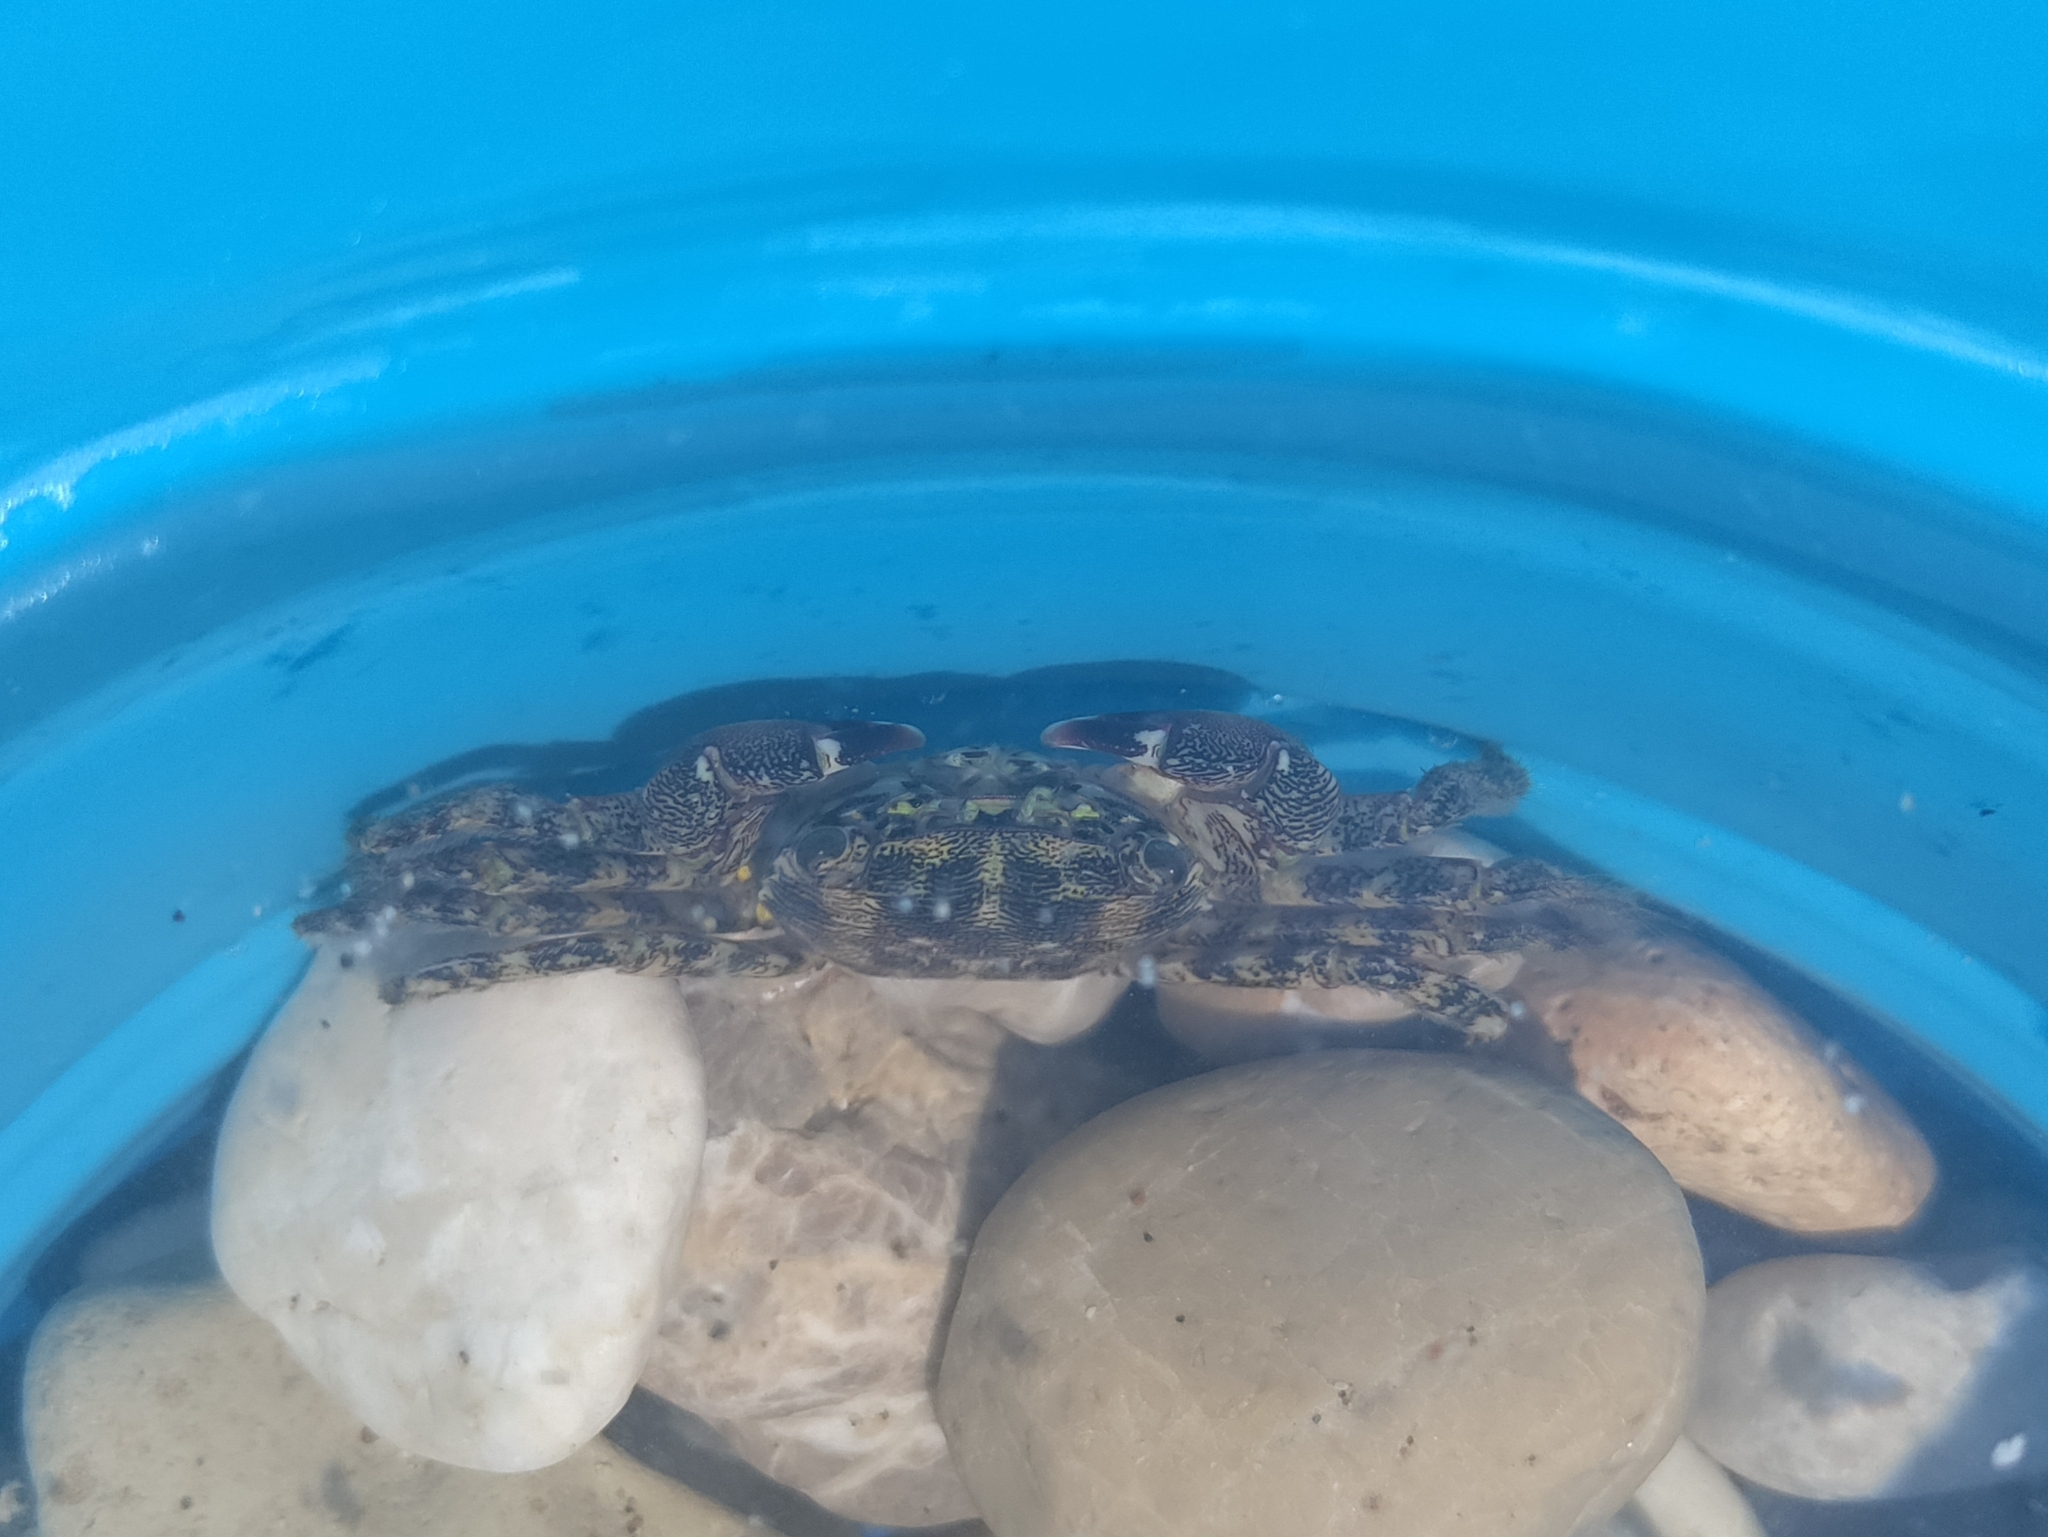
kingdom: Animalia
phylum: Arthropoda
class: Malacostraca
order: Decapoda
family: Grapsidae
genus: Pachygrapsus
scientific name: Pachygrapsus marmoratus
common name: Marbled rock crab
